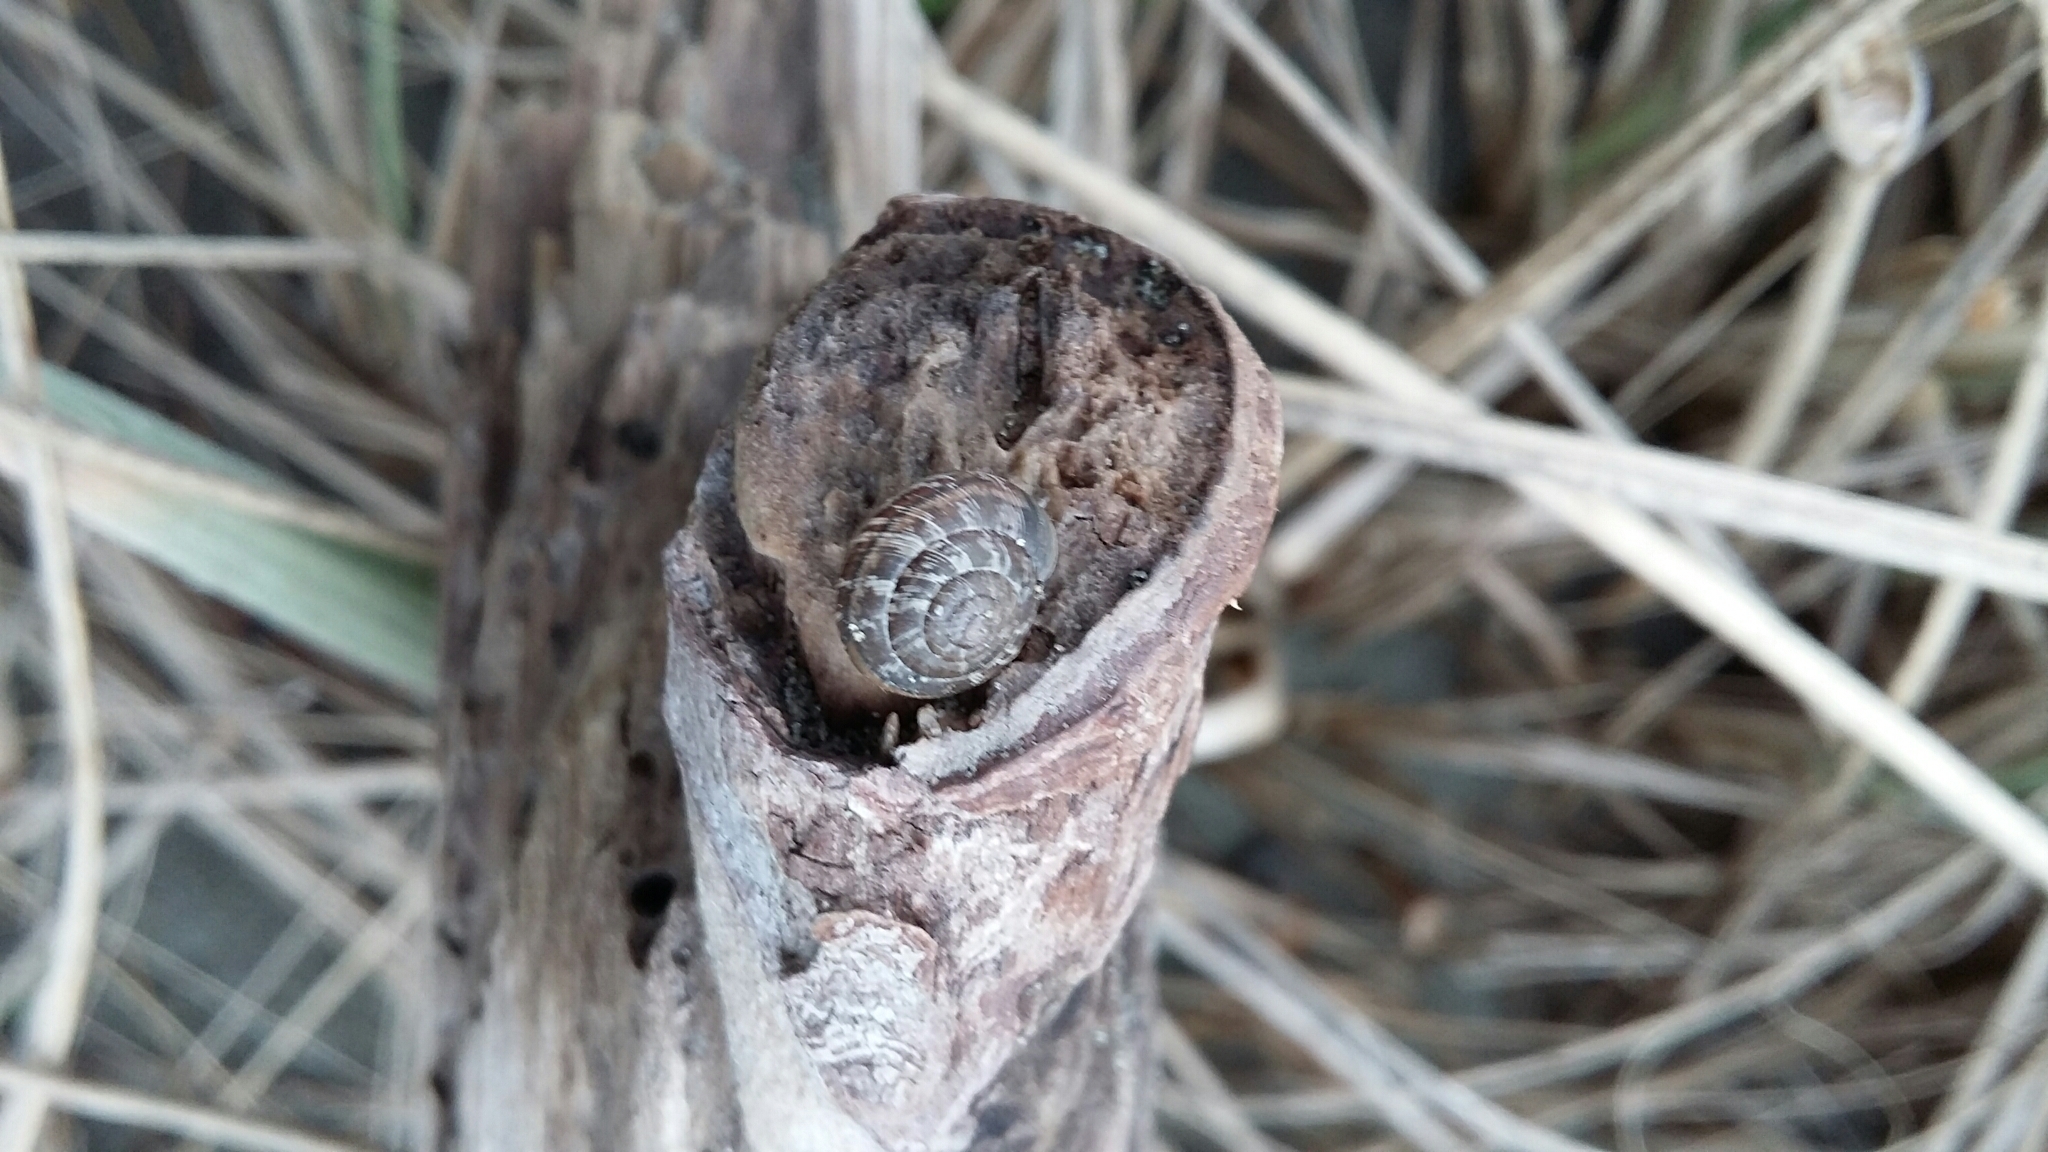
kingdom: Animalia
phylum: Mollusca
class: Gastropoda
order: Stylommatophora
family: Geomitridae
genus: Xeroplexa
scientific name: Xeroplexa intersecta
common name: Wrinkled snail
